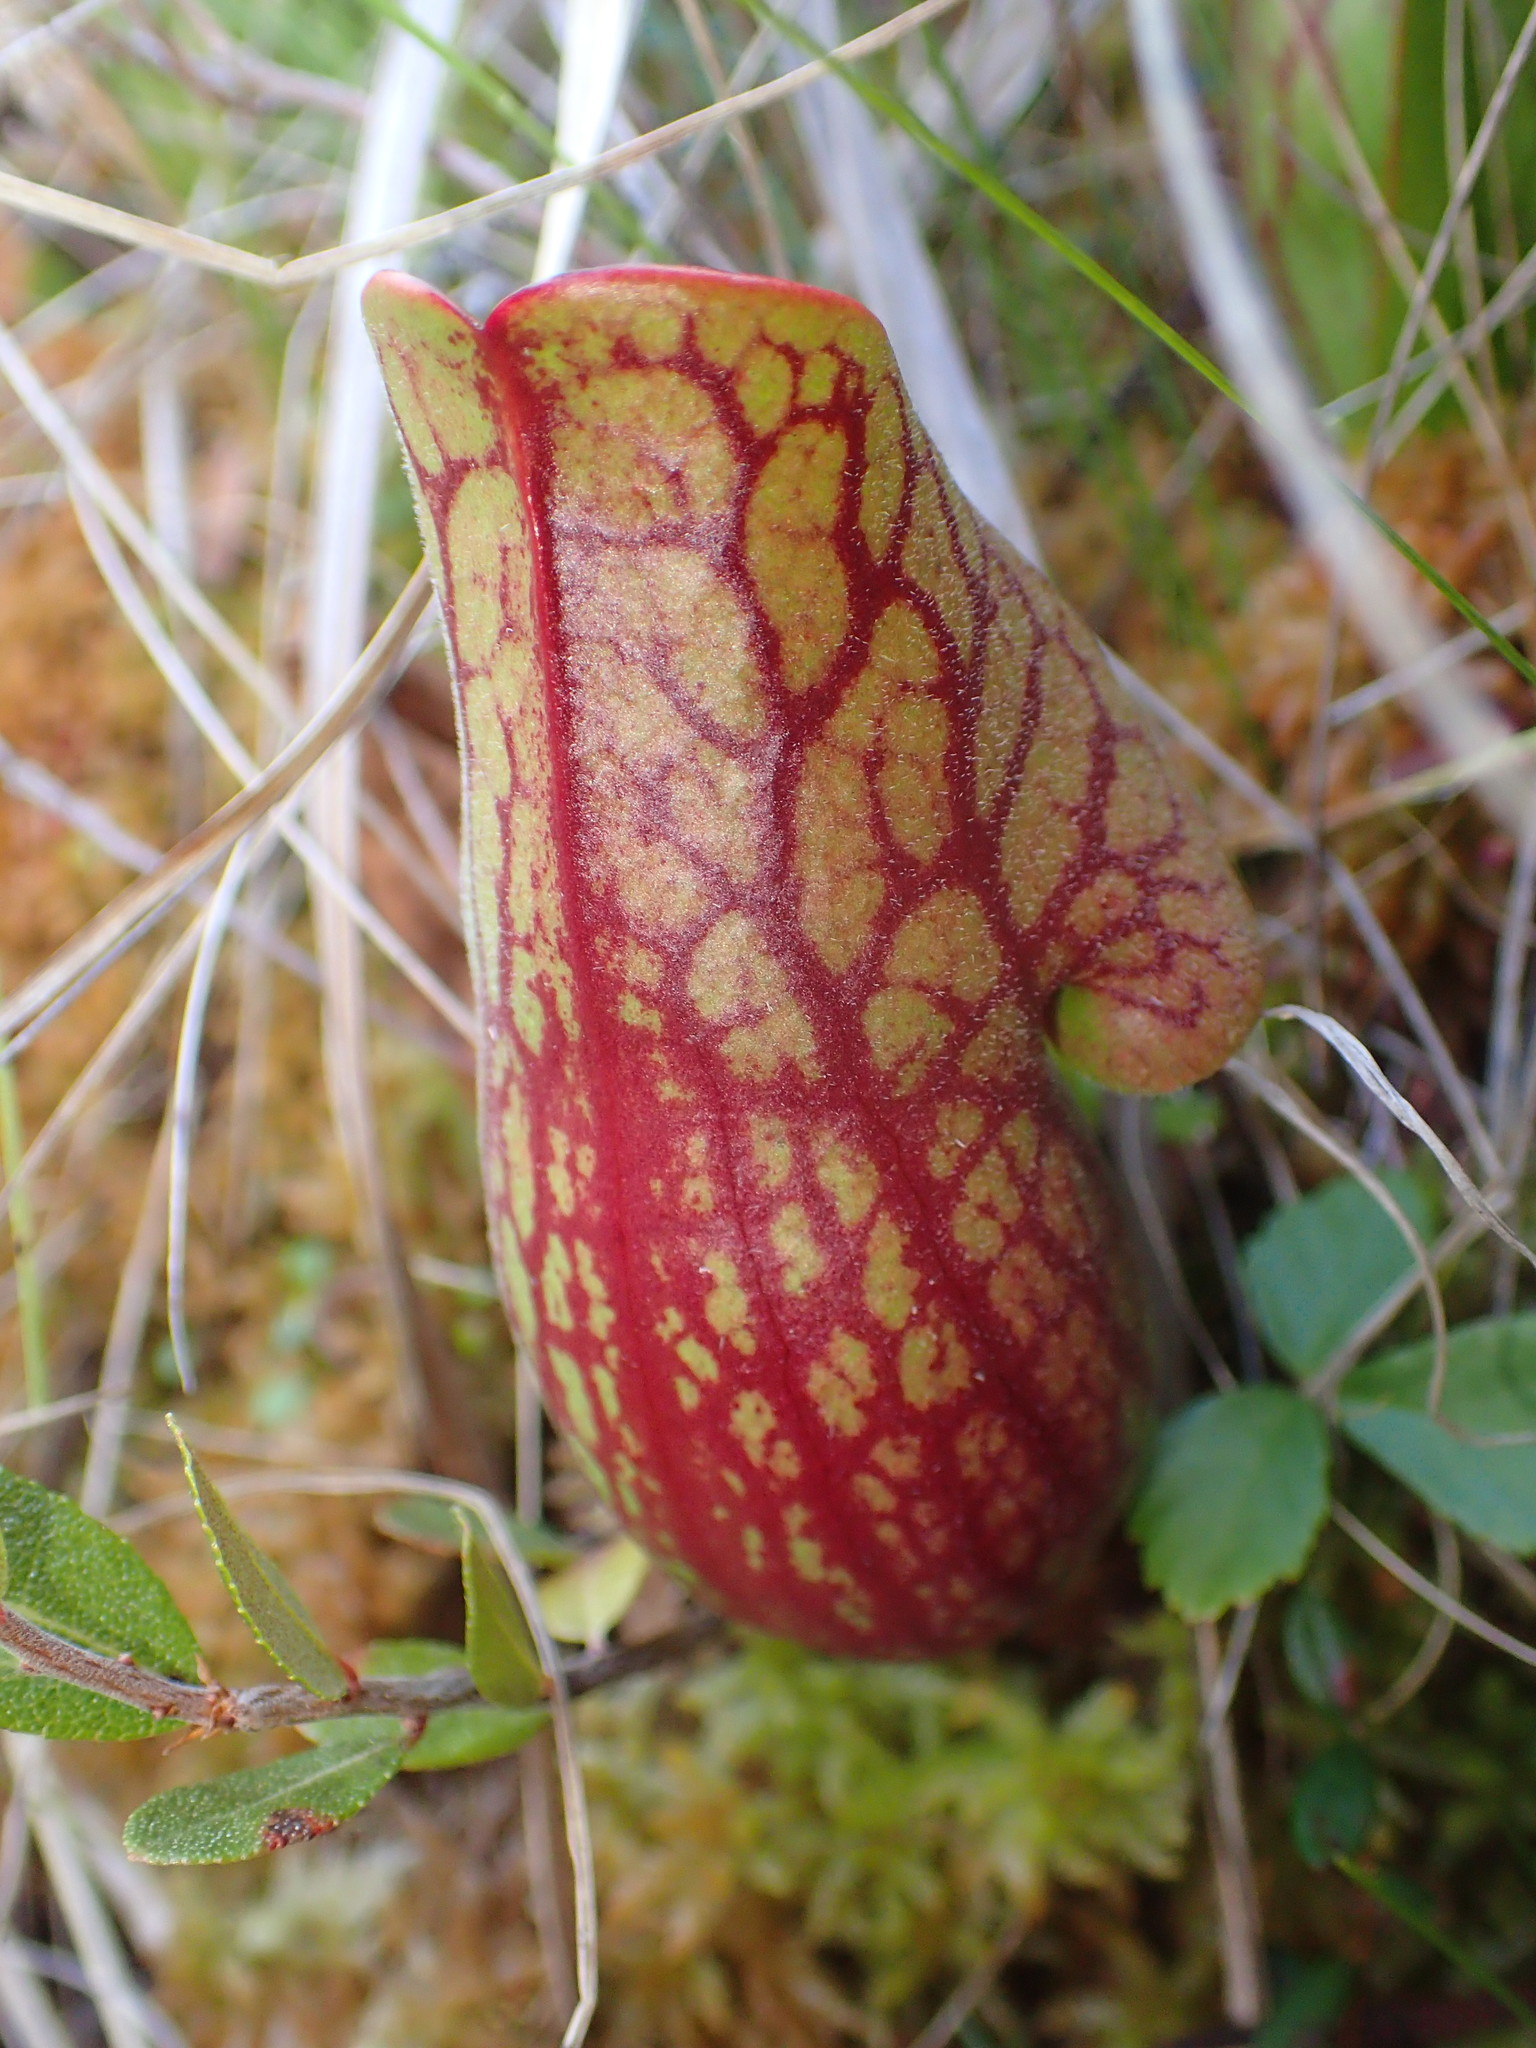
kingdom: Plantae
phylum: Tracheophyta
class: Magnoliopsida
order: Ericales
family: Sarraceniaceae
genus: Sarracenia
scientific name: Sarracenia purpurea
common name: Pitcherplant
